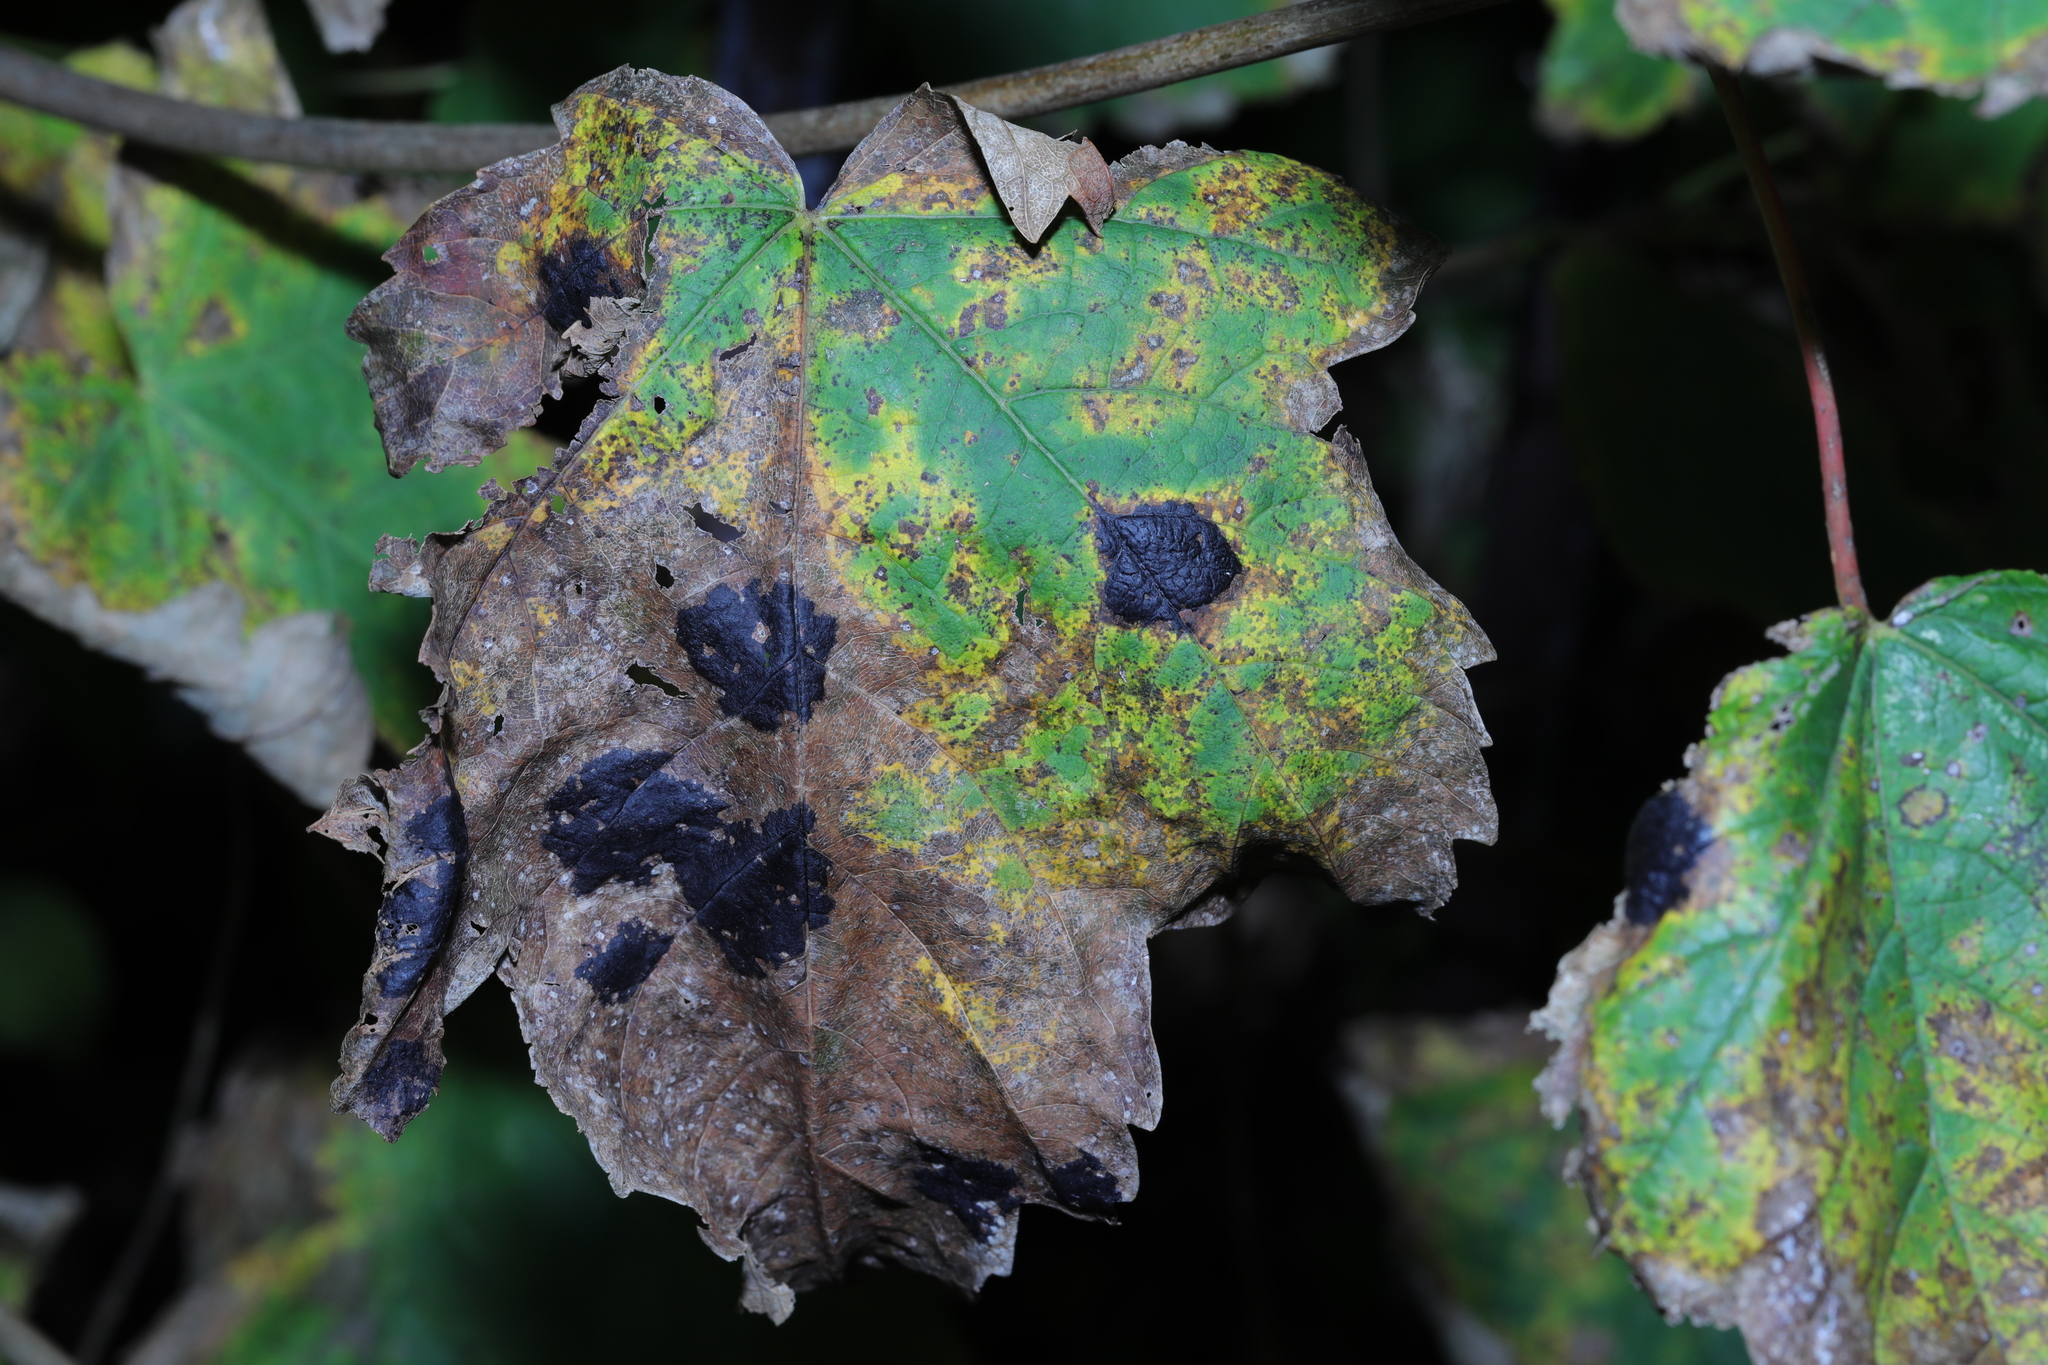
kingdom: Plantae
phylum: Tracheophyta
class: Magnoliopsida
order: Sapindales
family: Sapindaceae
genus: Acer
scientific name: Acer pseudoplatanus
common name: Sycamore
